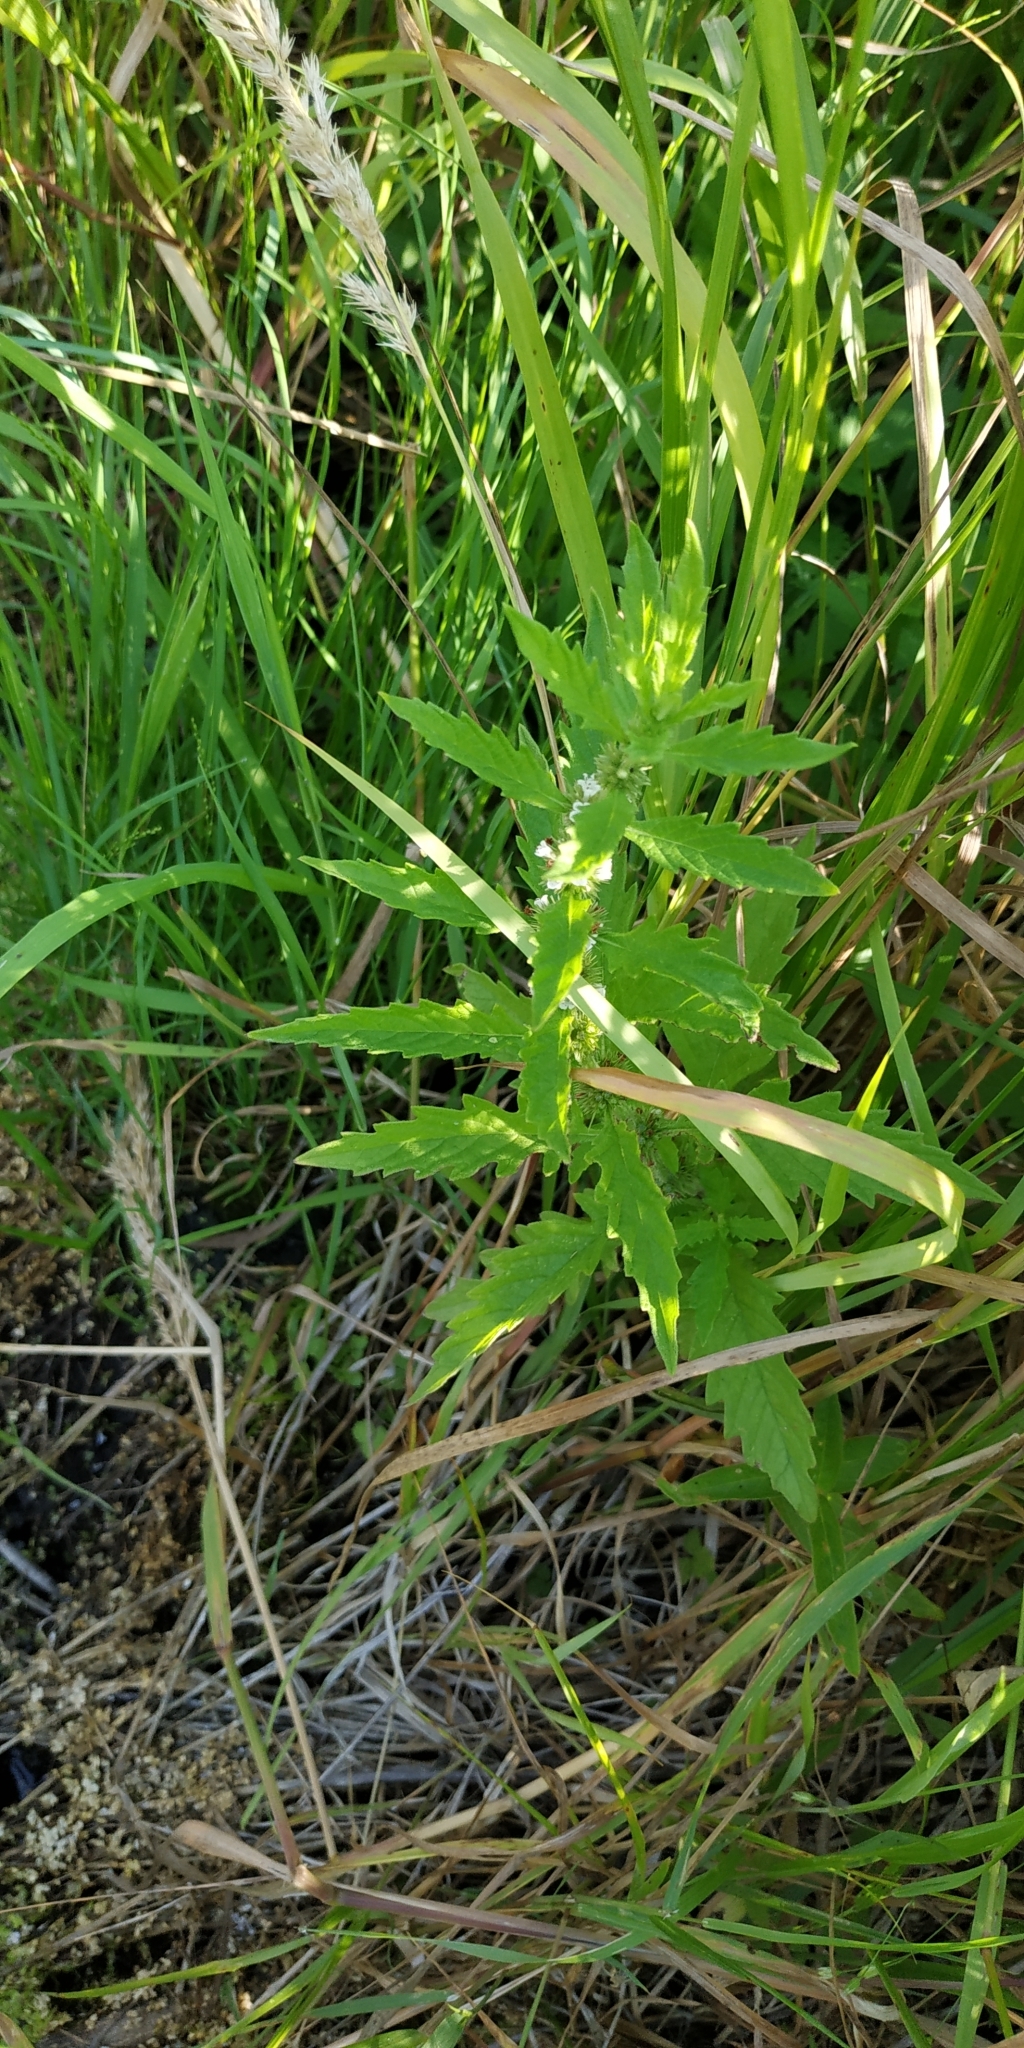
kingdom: Plantae
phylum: Tracheophyta
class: Magnoliopsida
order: Lamiales
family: Lamiaceae
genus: Lycopus
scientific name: Lycopus europaeus
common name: European bugleweed
